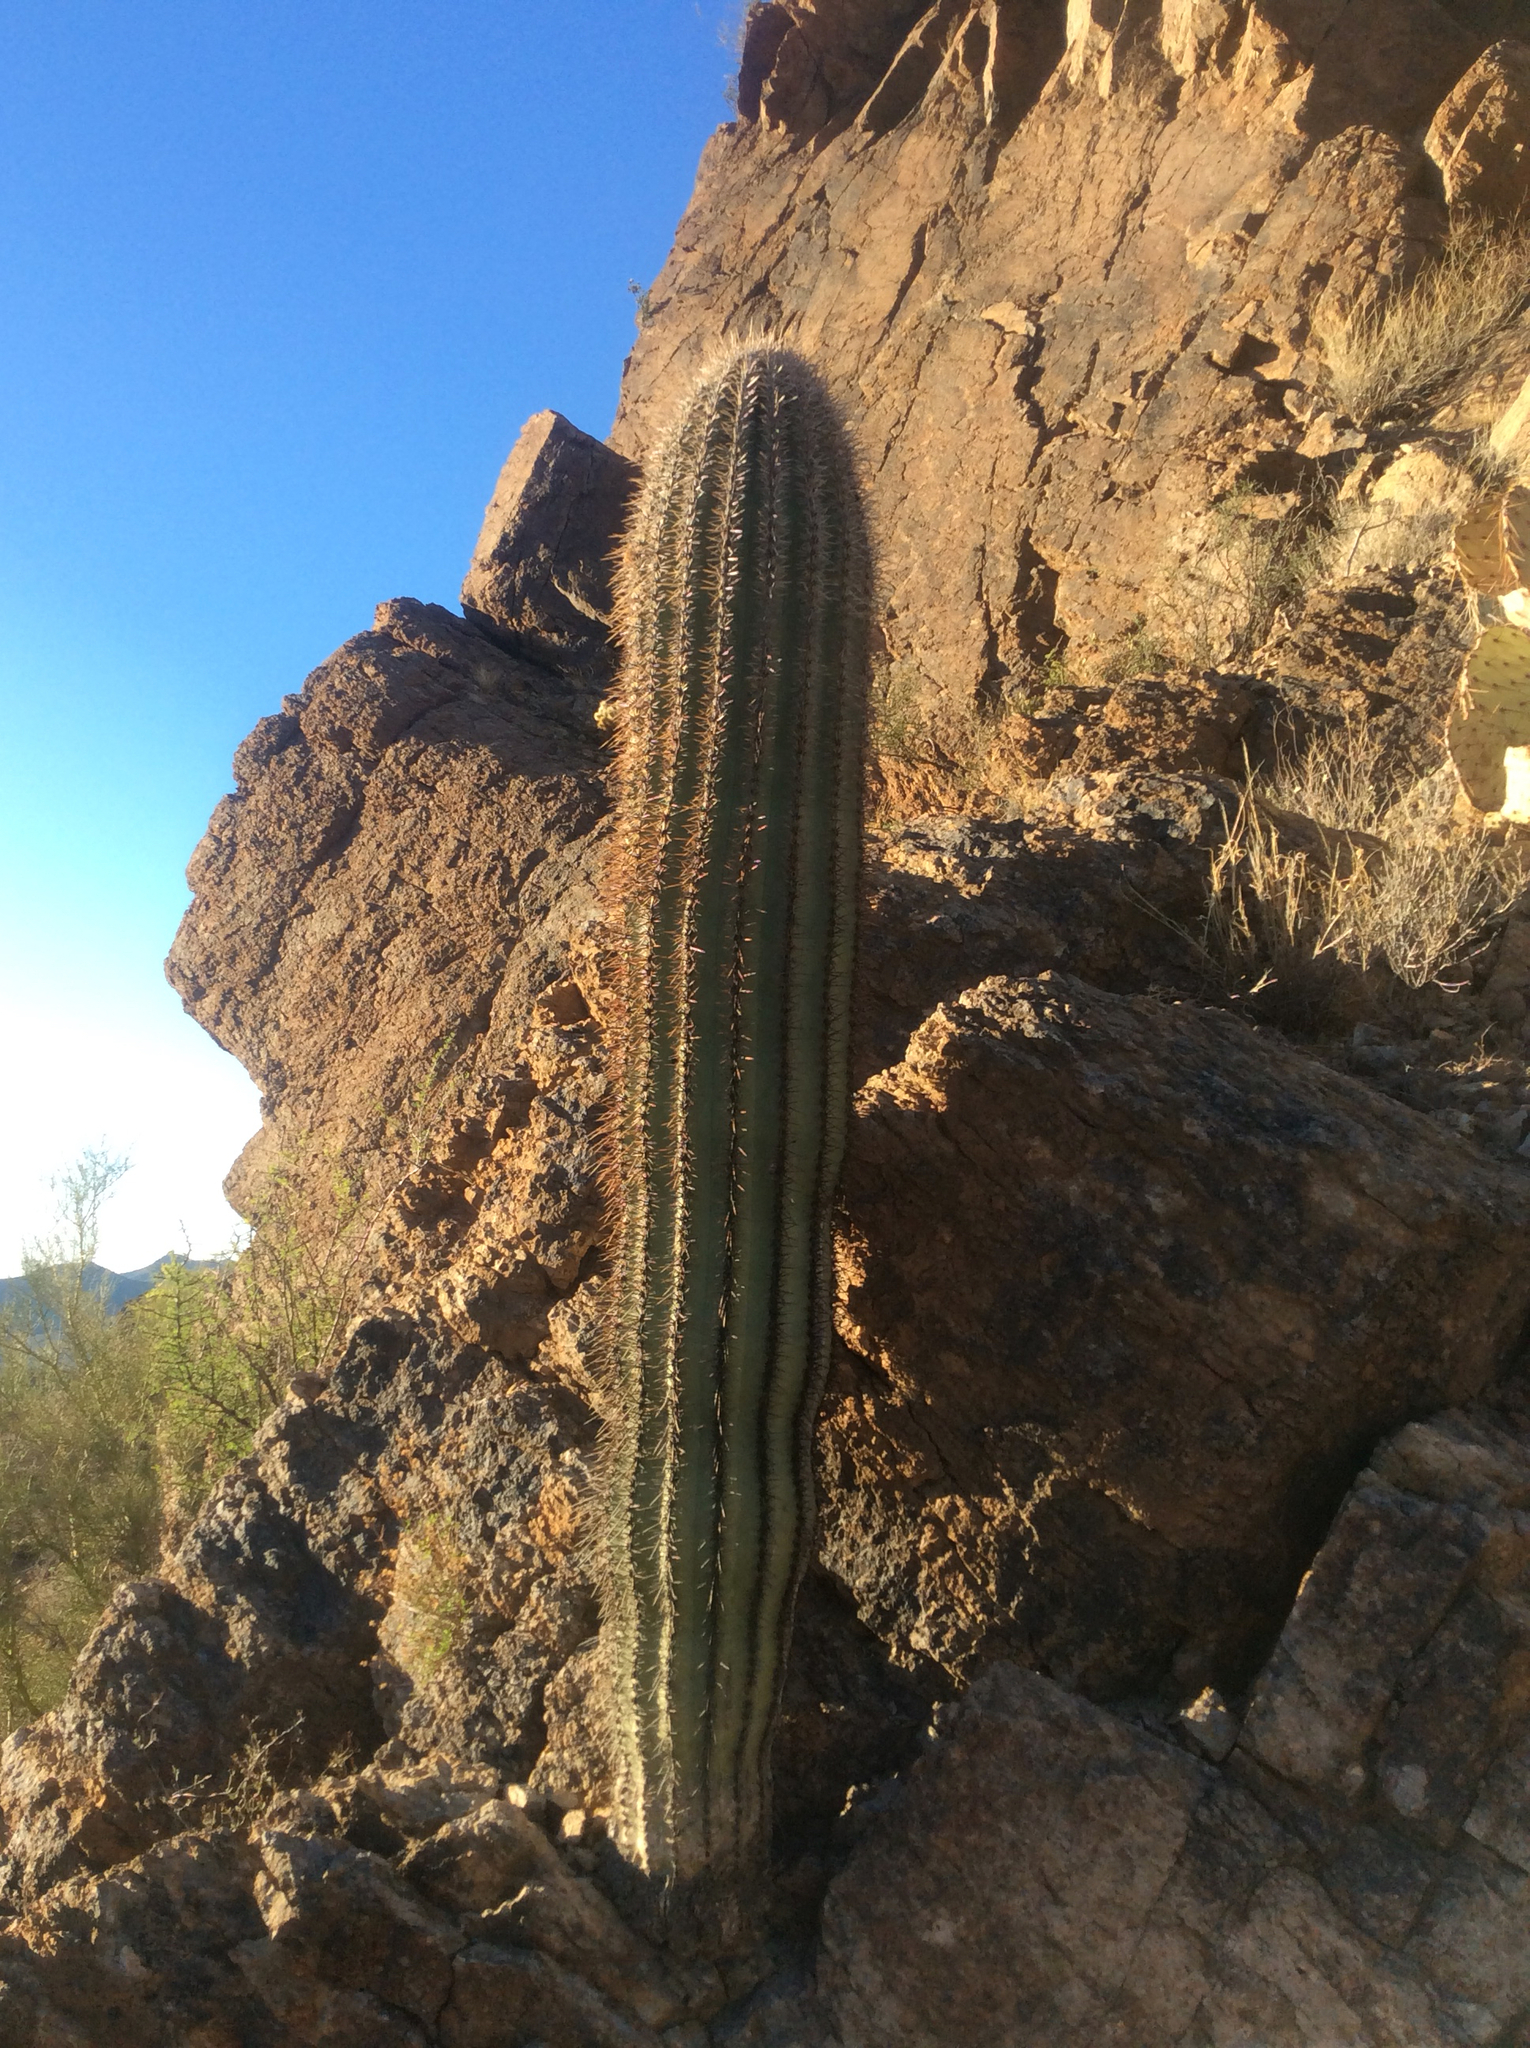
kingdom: Plantae
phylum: Tracheophyta
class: Magnoliopsida
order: Caryophyllales
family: Cactaceae
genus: Carnegiea
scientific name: Carnegiea gigantea
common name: Saguaro
